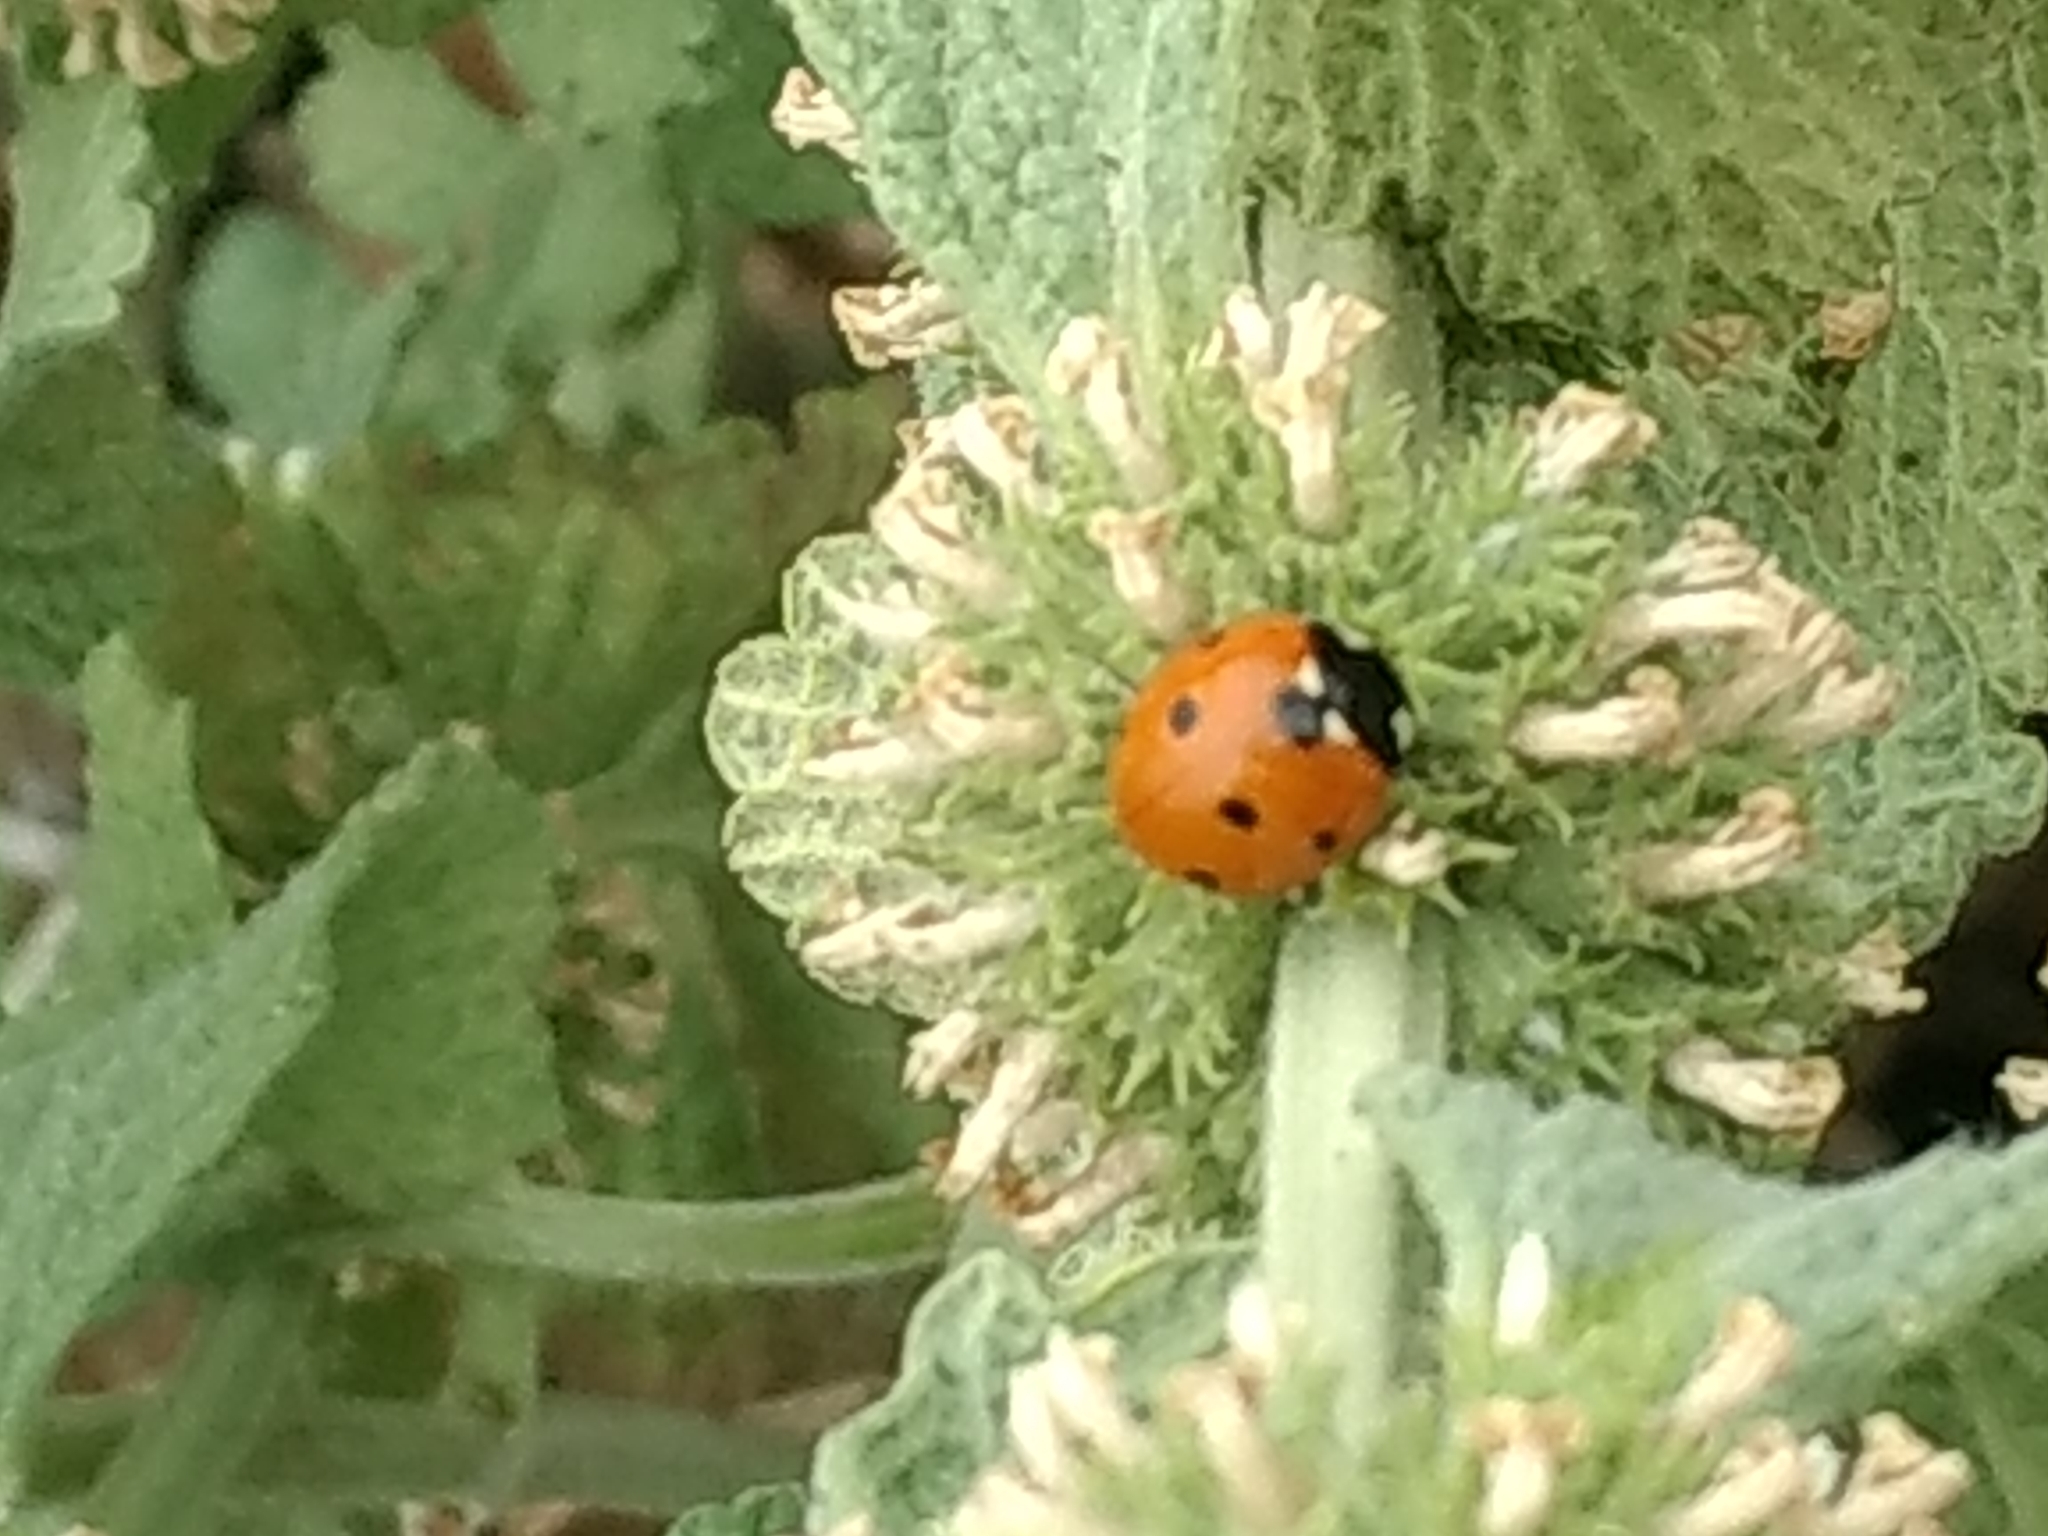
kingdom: Animalia
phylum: Arthropoda
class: Insecta
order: Coleoptera
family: Coccinellidae
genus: Coccinella
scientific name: Coccinella septempunctata
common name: Sevenspotted lady beetle
